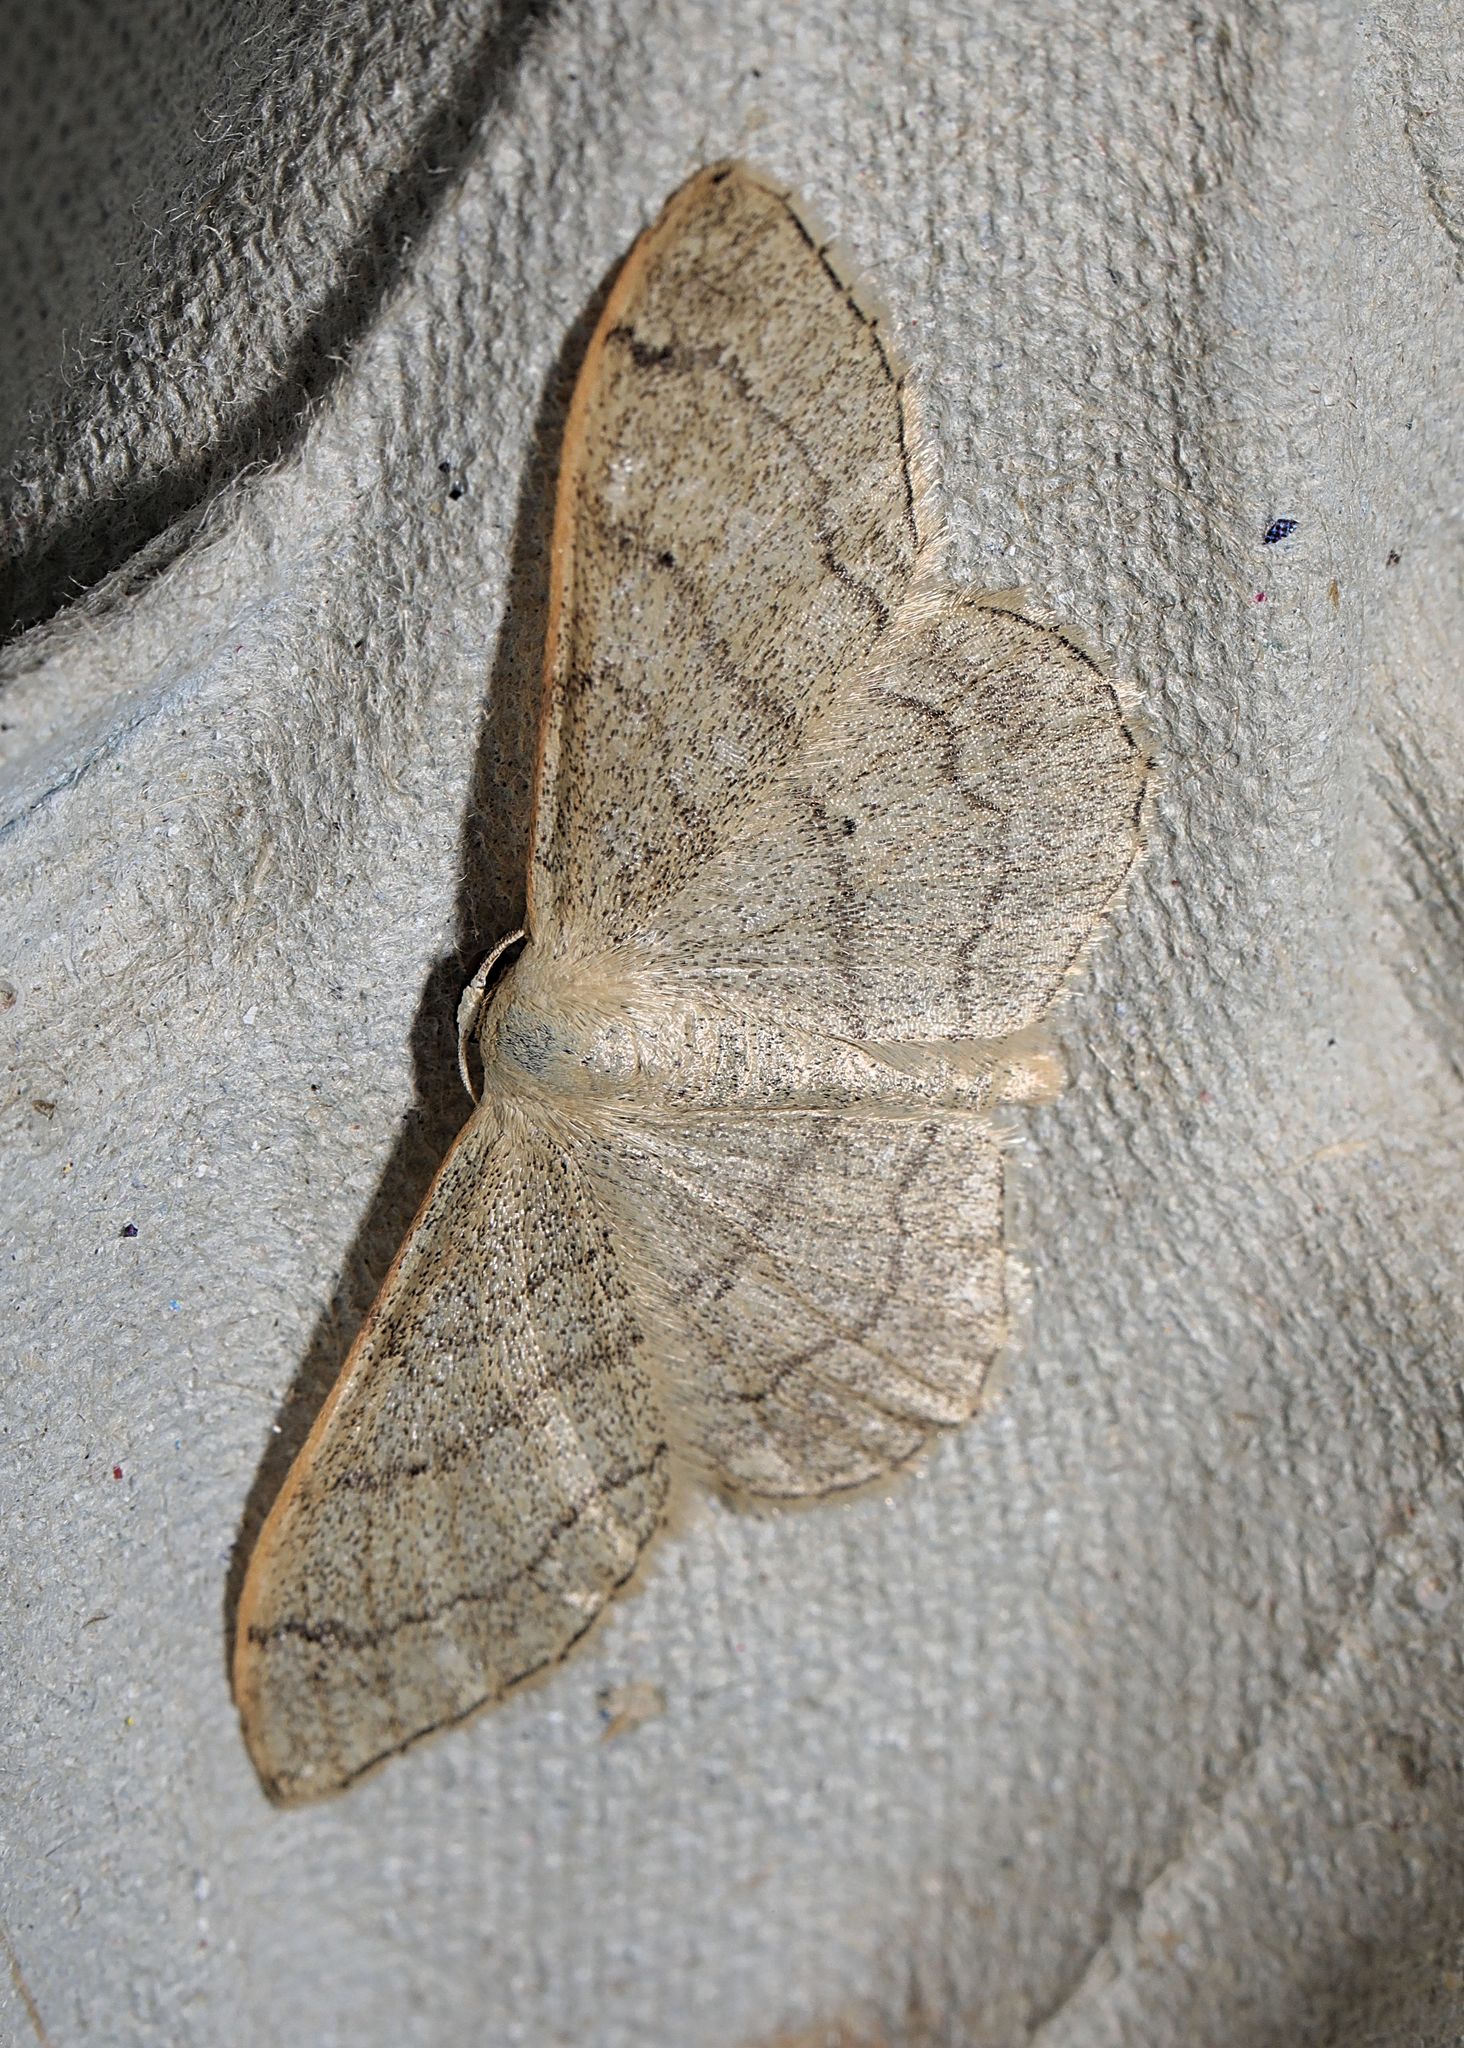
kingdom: Animalia
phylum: Arthropoda
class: Insecta
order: Lepidoptera
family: Geometridae
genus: Idaea
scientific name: Idaea aversata
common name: Riband wave
